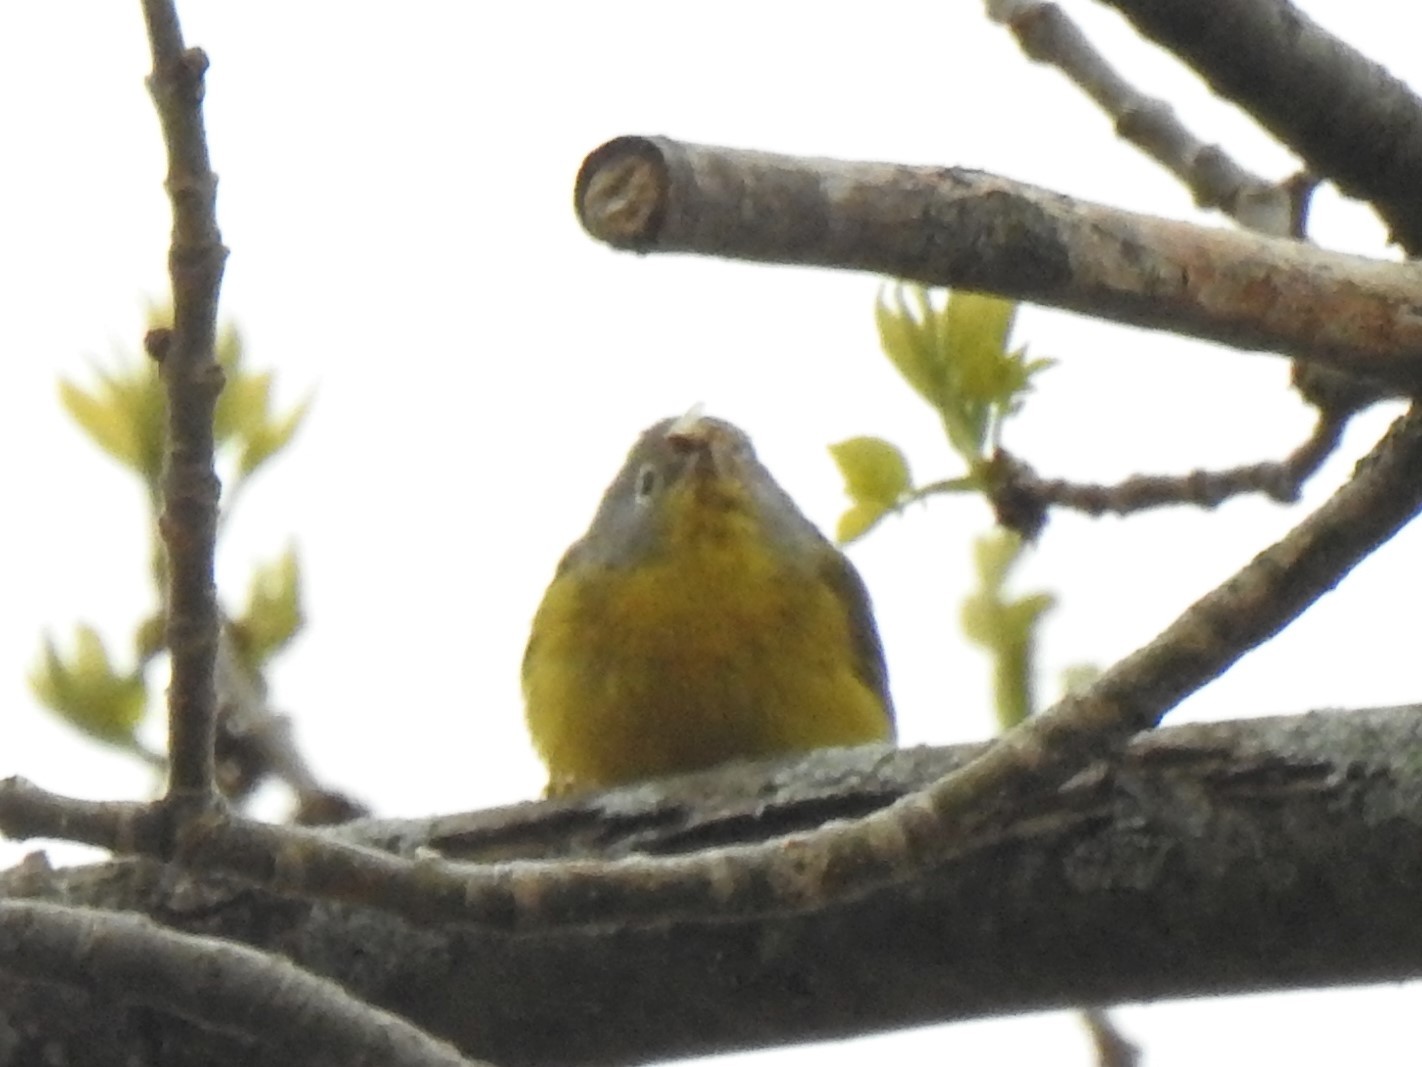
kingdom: Animalia
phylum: Chordata
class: Aves
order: Passeriformes
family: Parulidae
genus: Leiothlypis
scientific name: Leiothlypis ruficapilla
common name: Nashville warbler
